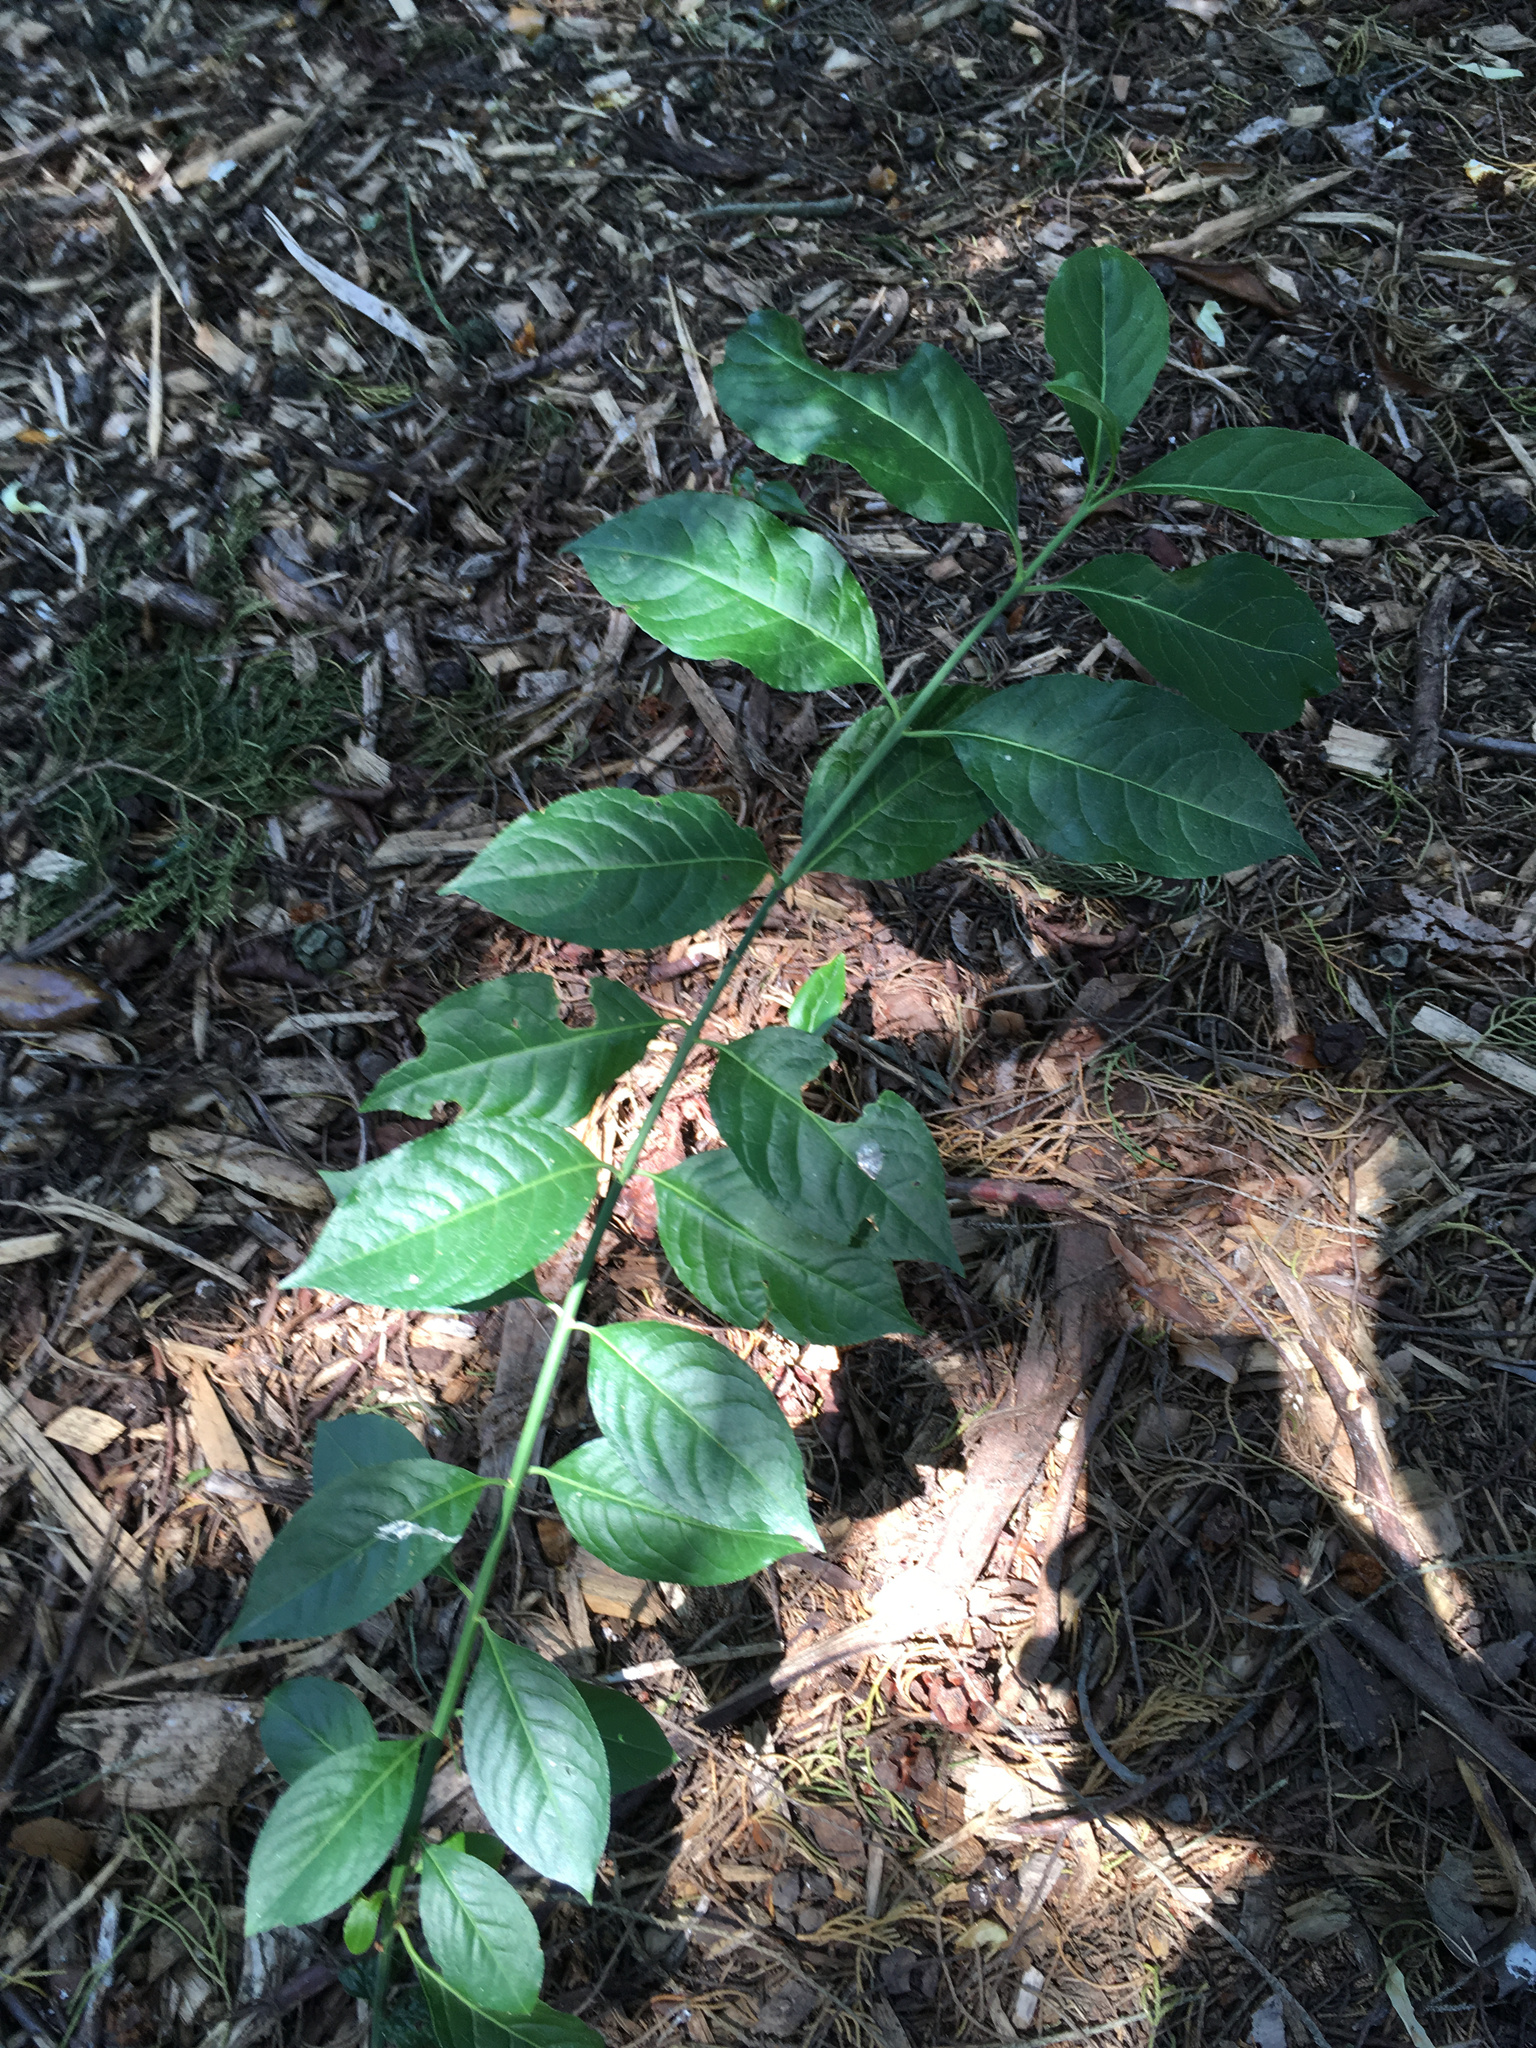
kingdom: Plantae
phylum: Tracheophyta
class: Magnoliopsida
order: Celastrales
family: Celastraceae
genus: Euonymus
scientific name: Euonymus europaeus
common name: Spindle
